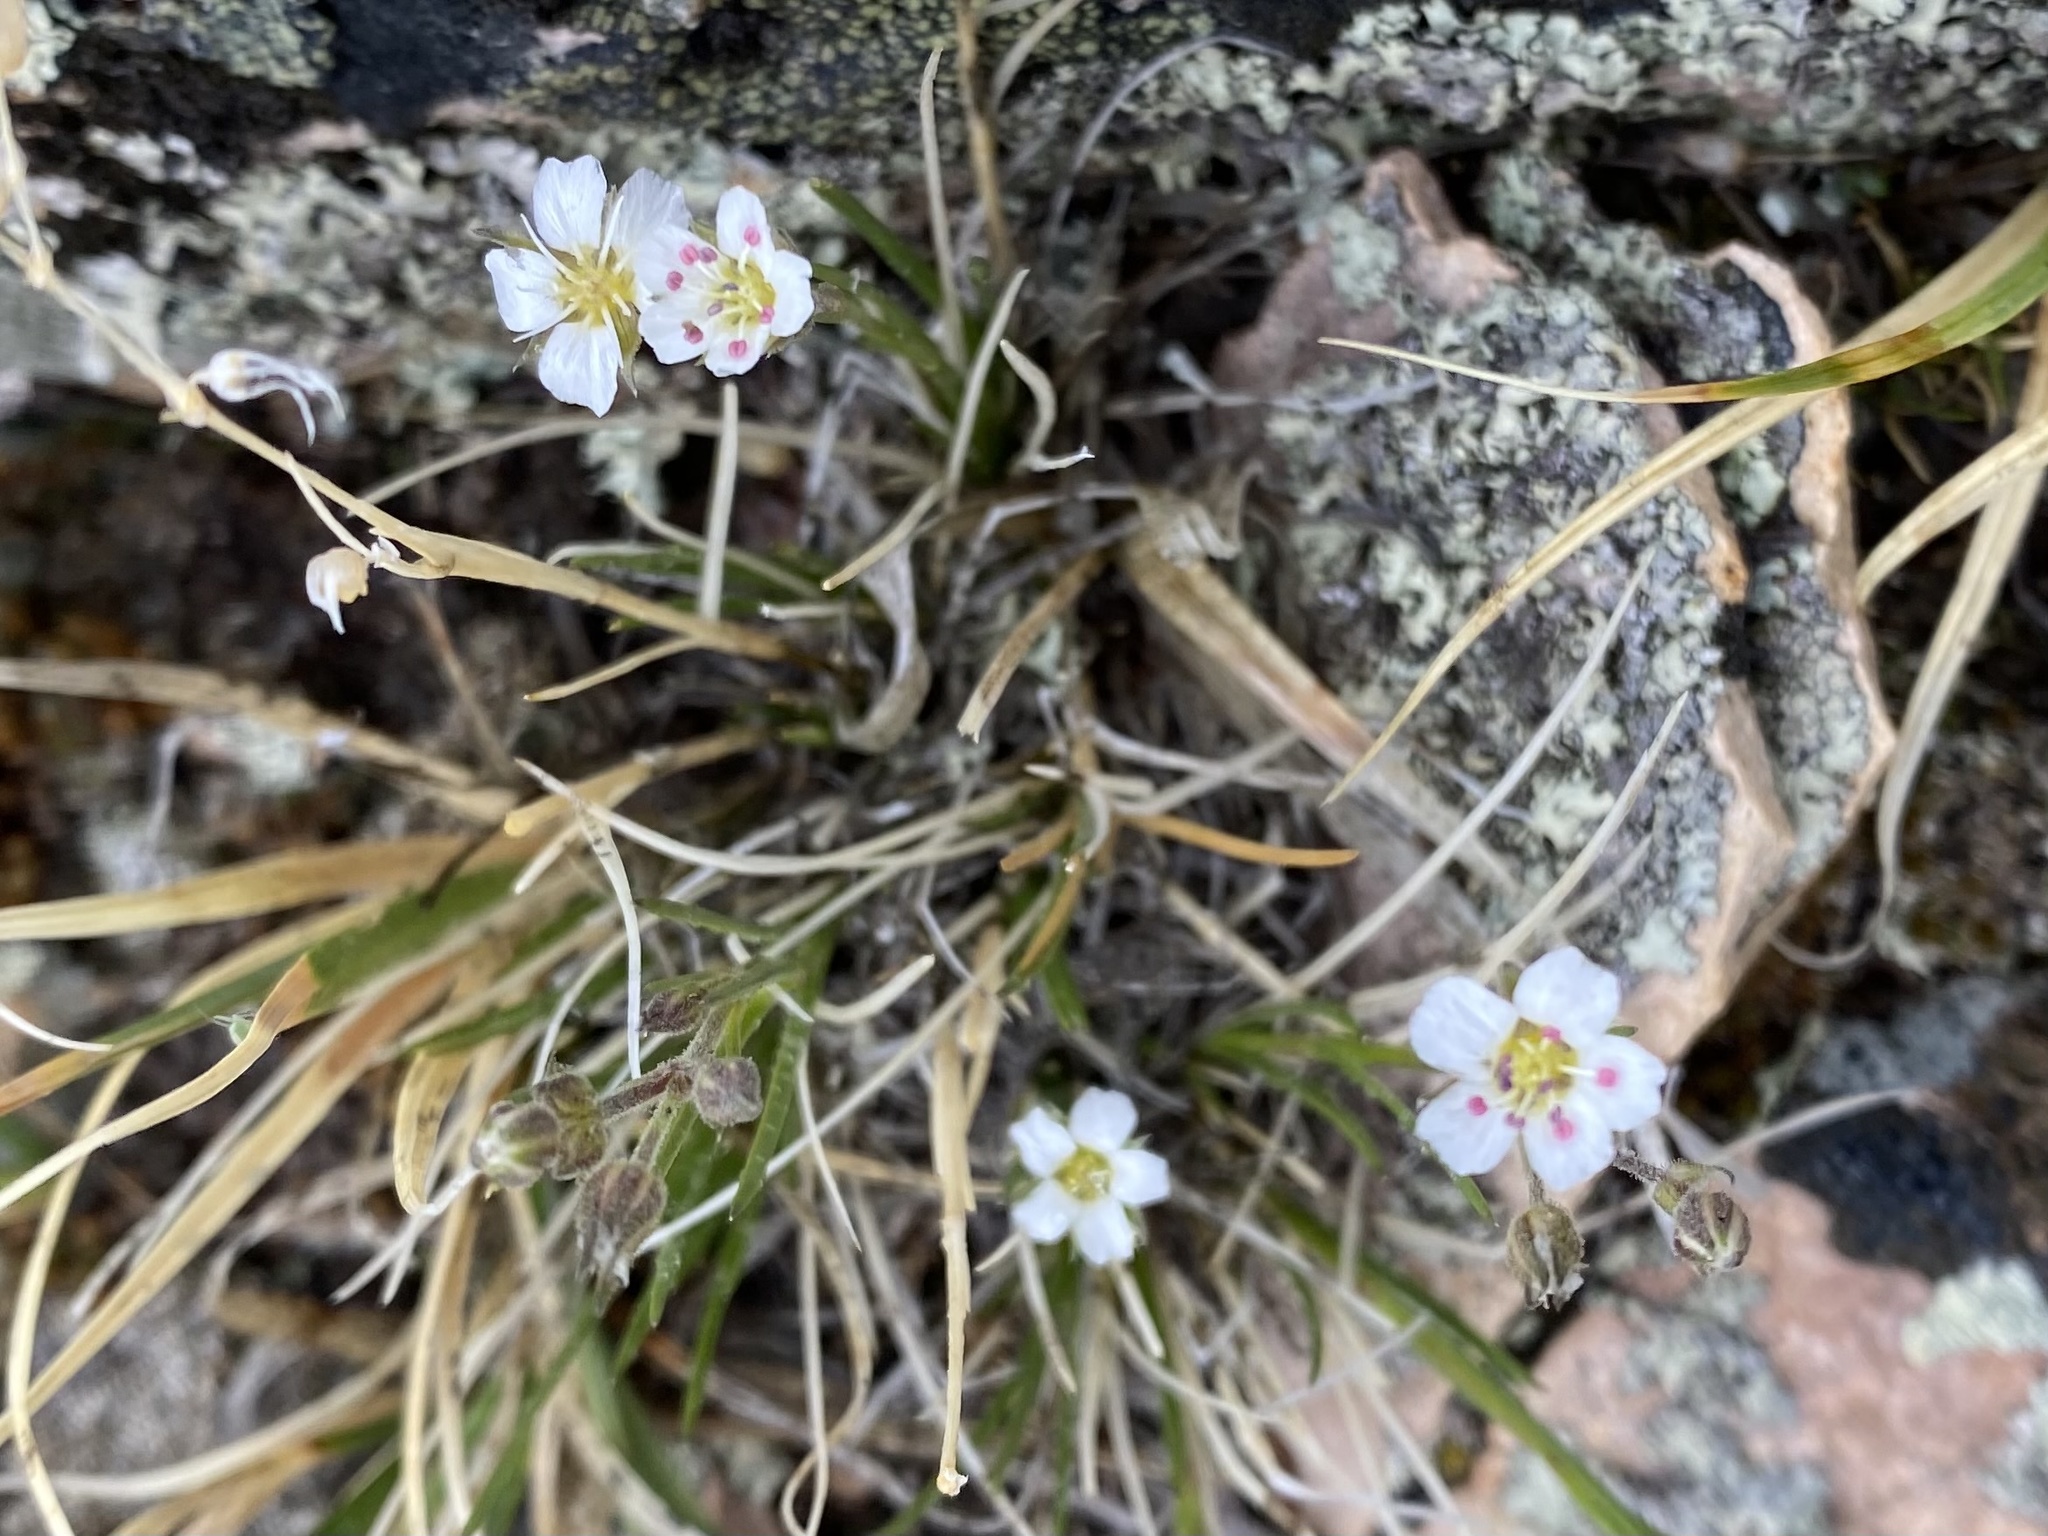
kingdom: Plantae
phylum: Tracheophyta
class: Magnoliopsida
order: Caryophyllales
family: Caryophyllaceae
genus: Eremogone
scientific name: Eremogone fendleri
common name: Fendler's sandwort
